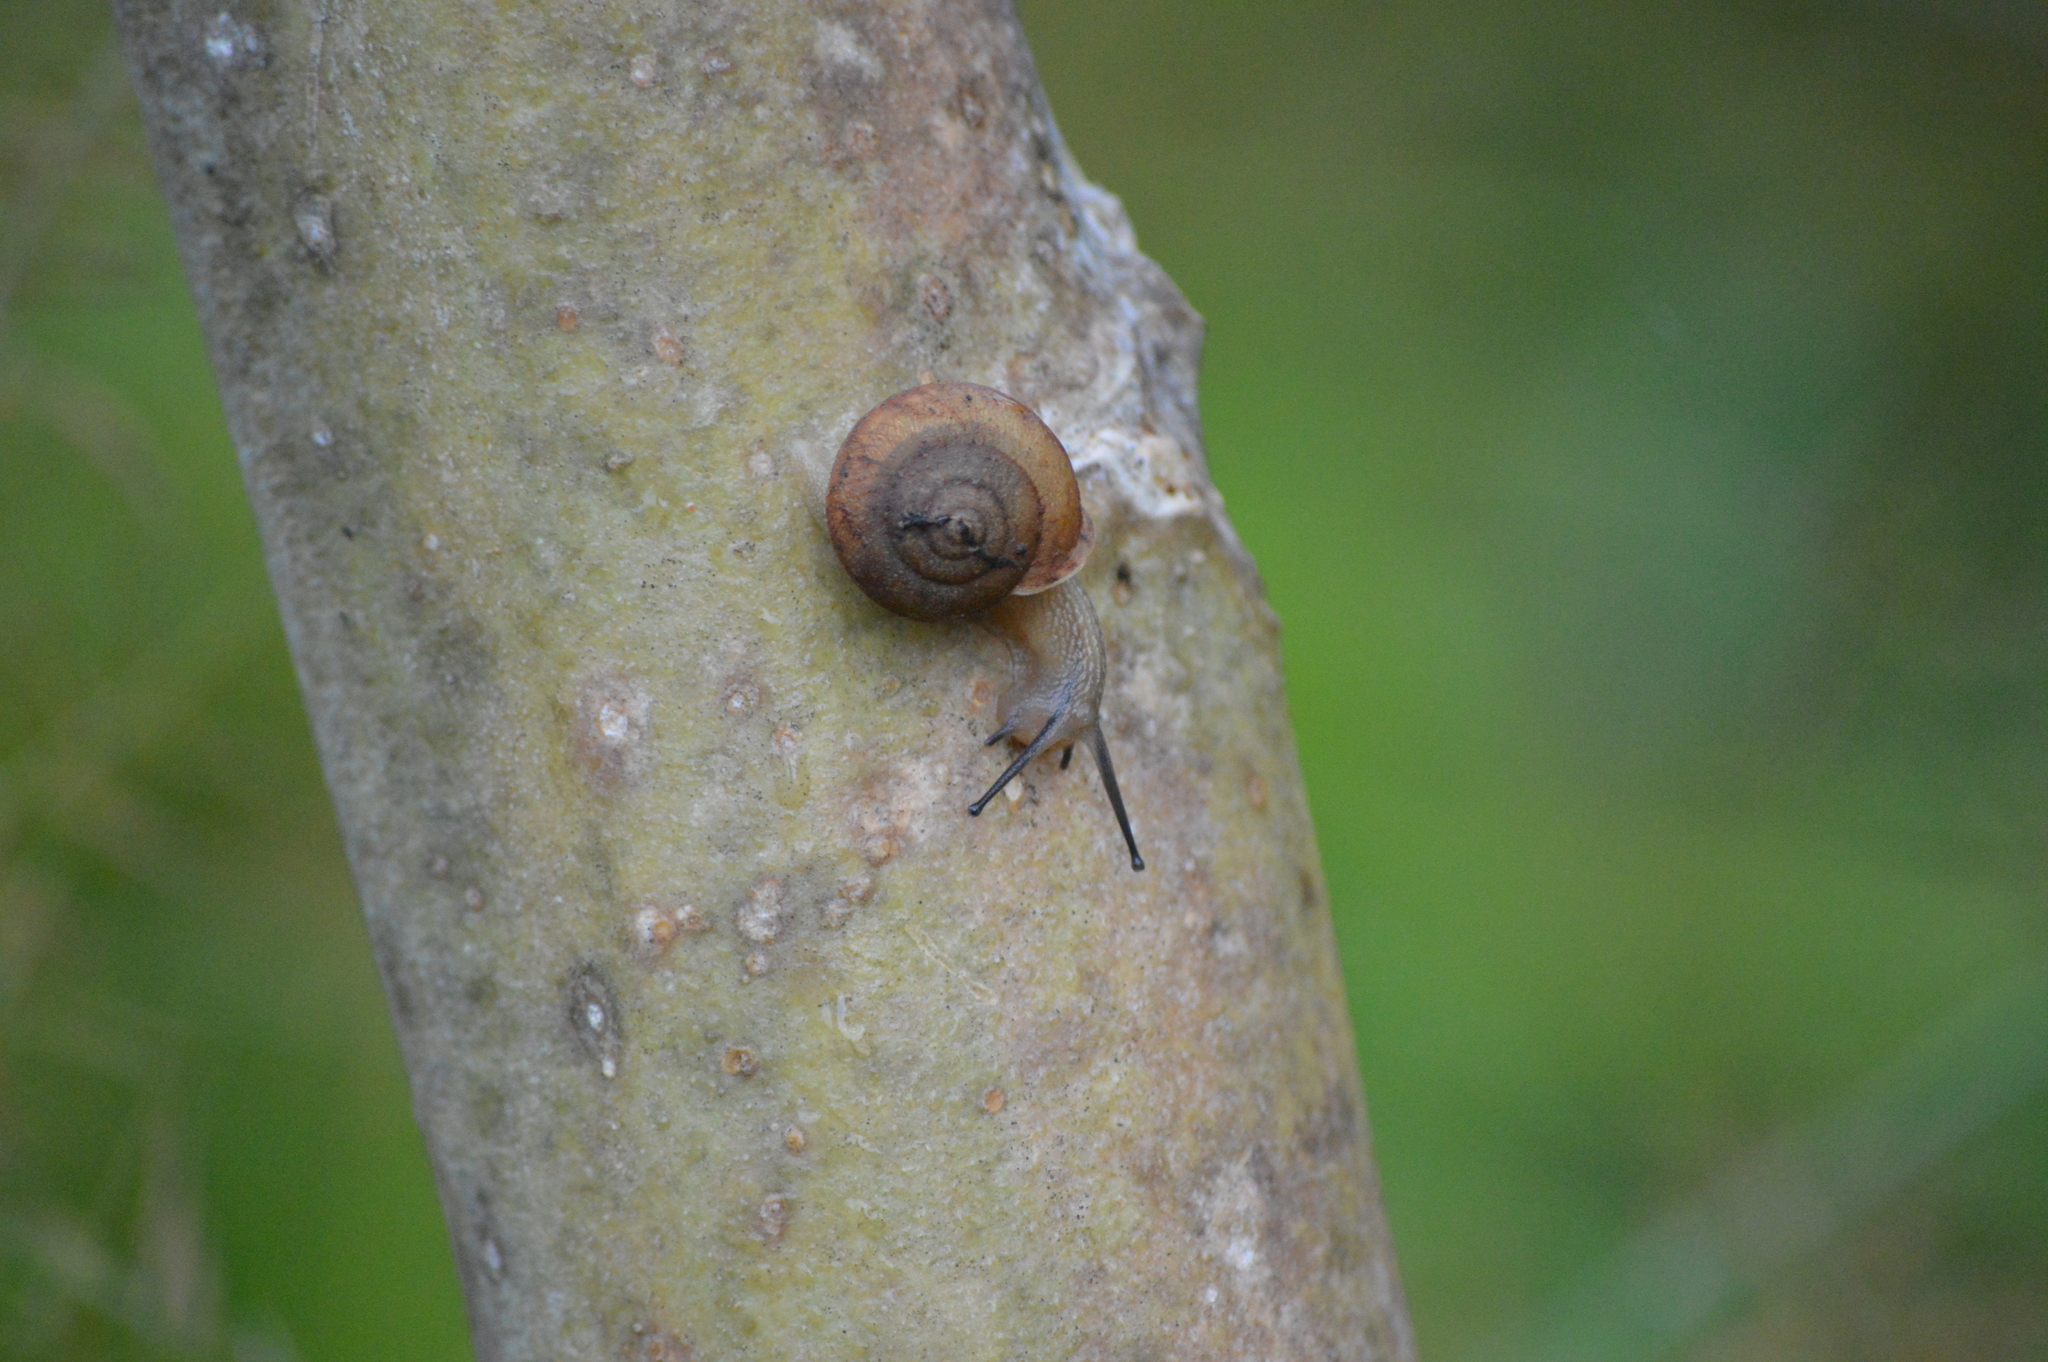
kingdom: Animalia
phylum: Mollusca
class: Gastropoda
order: Stylommatophora
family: Camaenidae
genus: Bradybaena
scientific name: Bradybaena similaris
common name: Asian trampsnail
